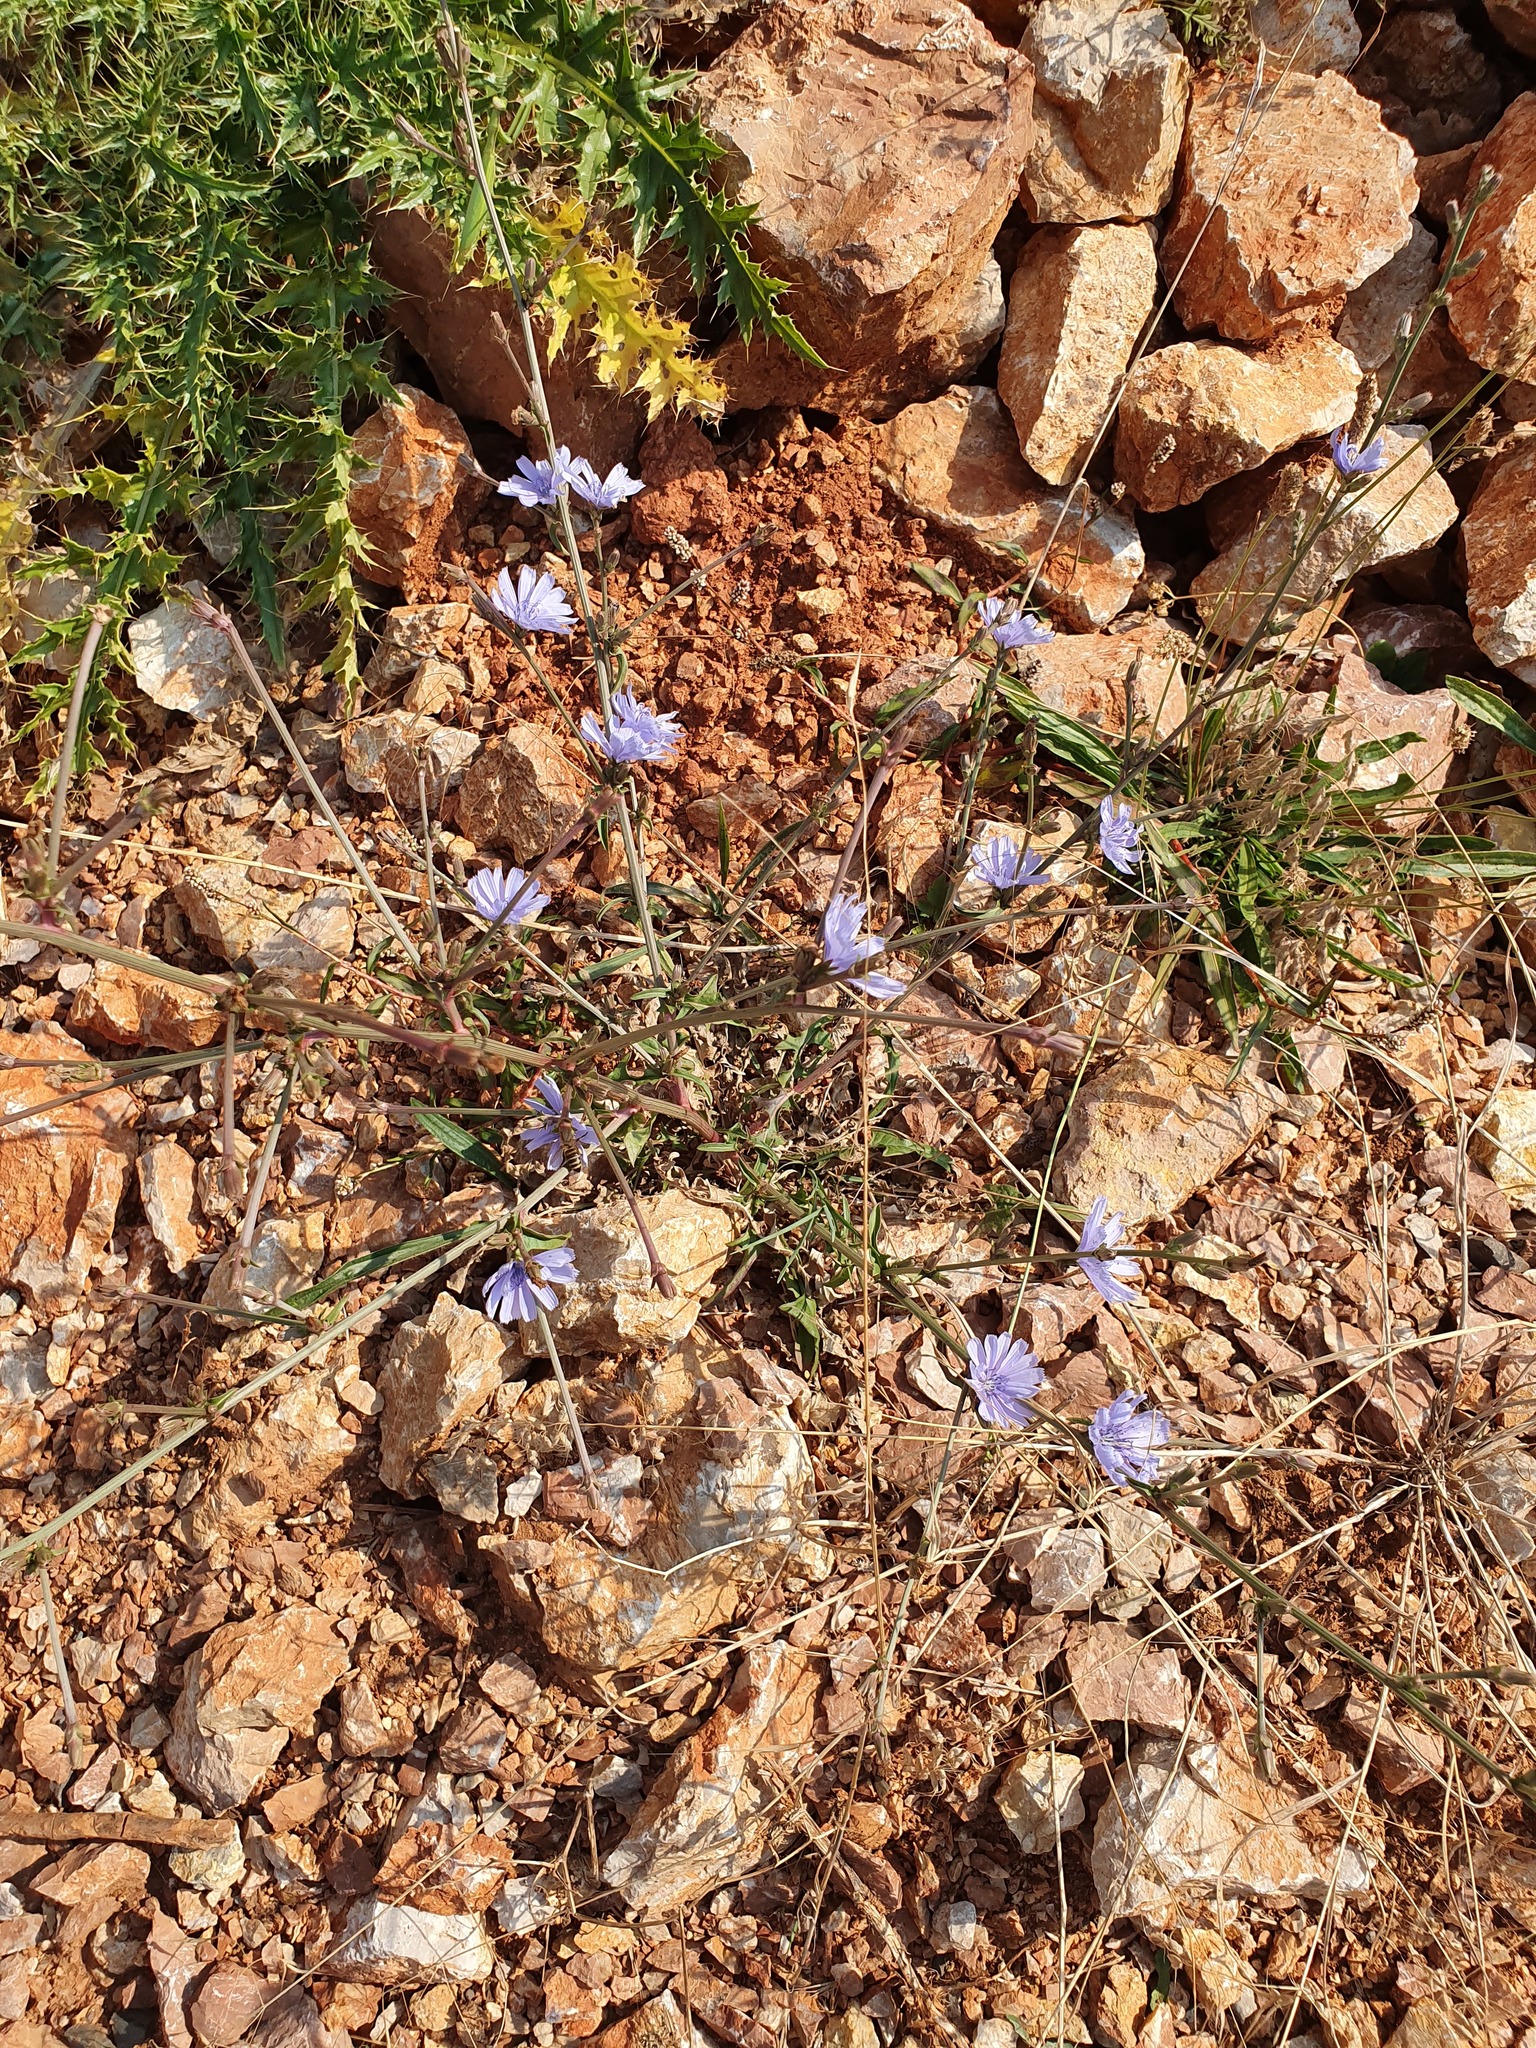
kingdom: Plantae
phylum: Tracheophyta
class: Magnoliopsida
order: Asterales
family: Asteraceae
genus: Cichorium
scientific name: Cichorium intybus
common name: Chicory
